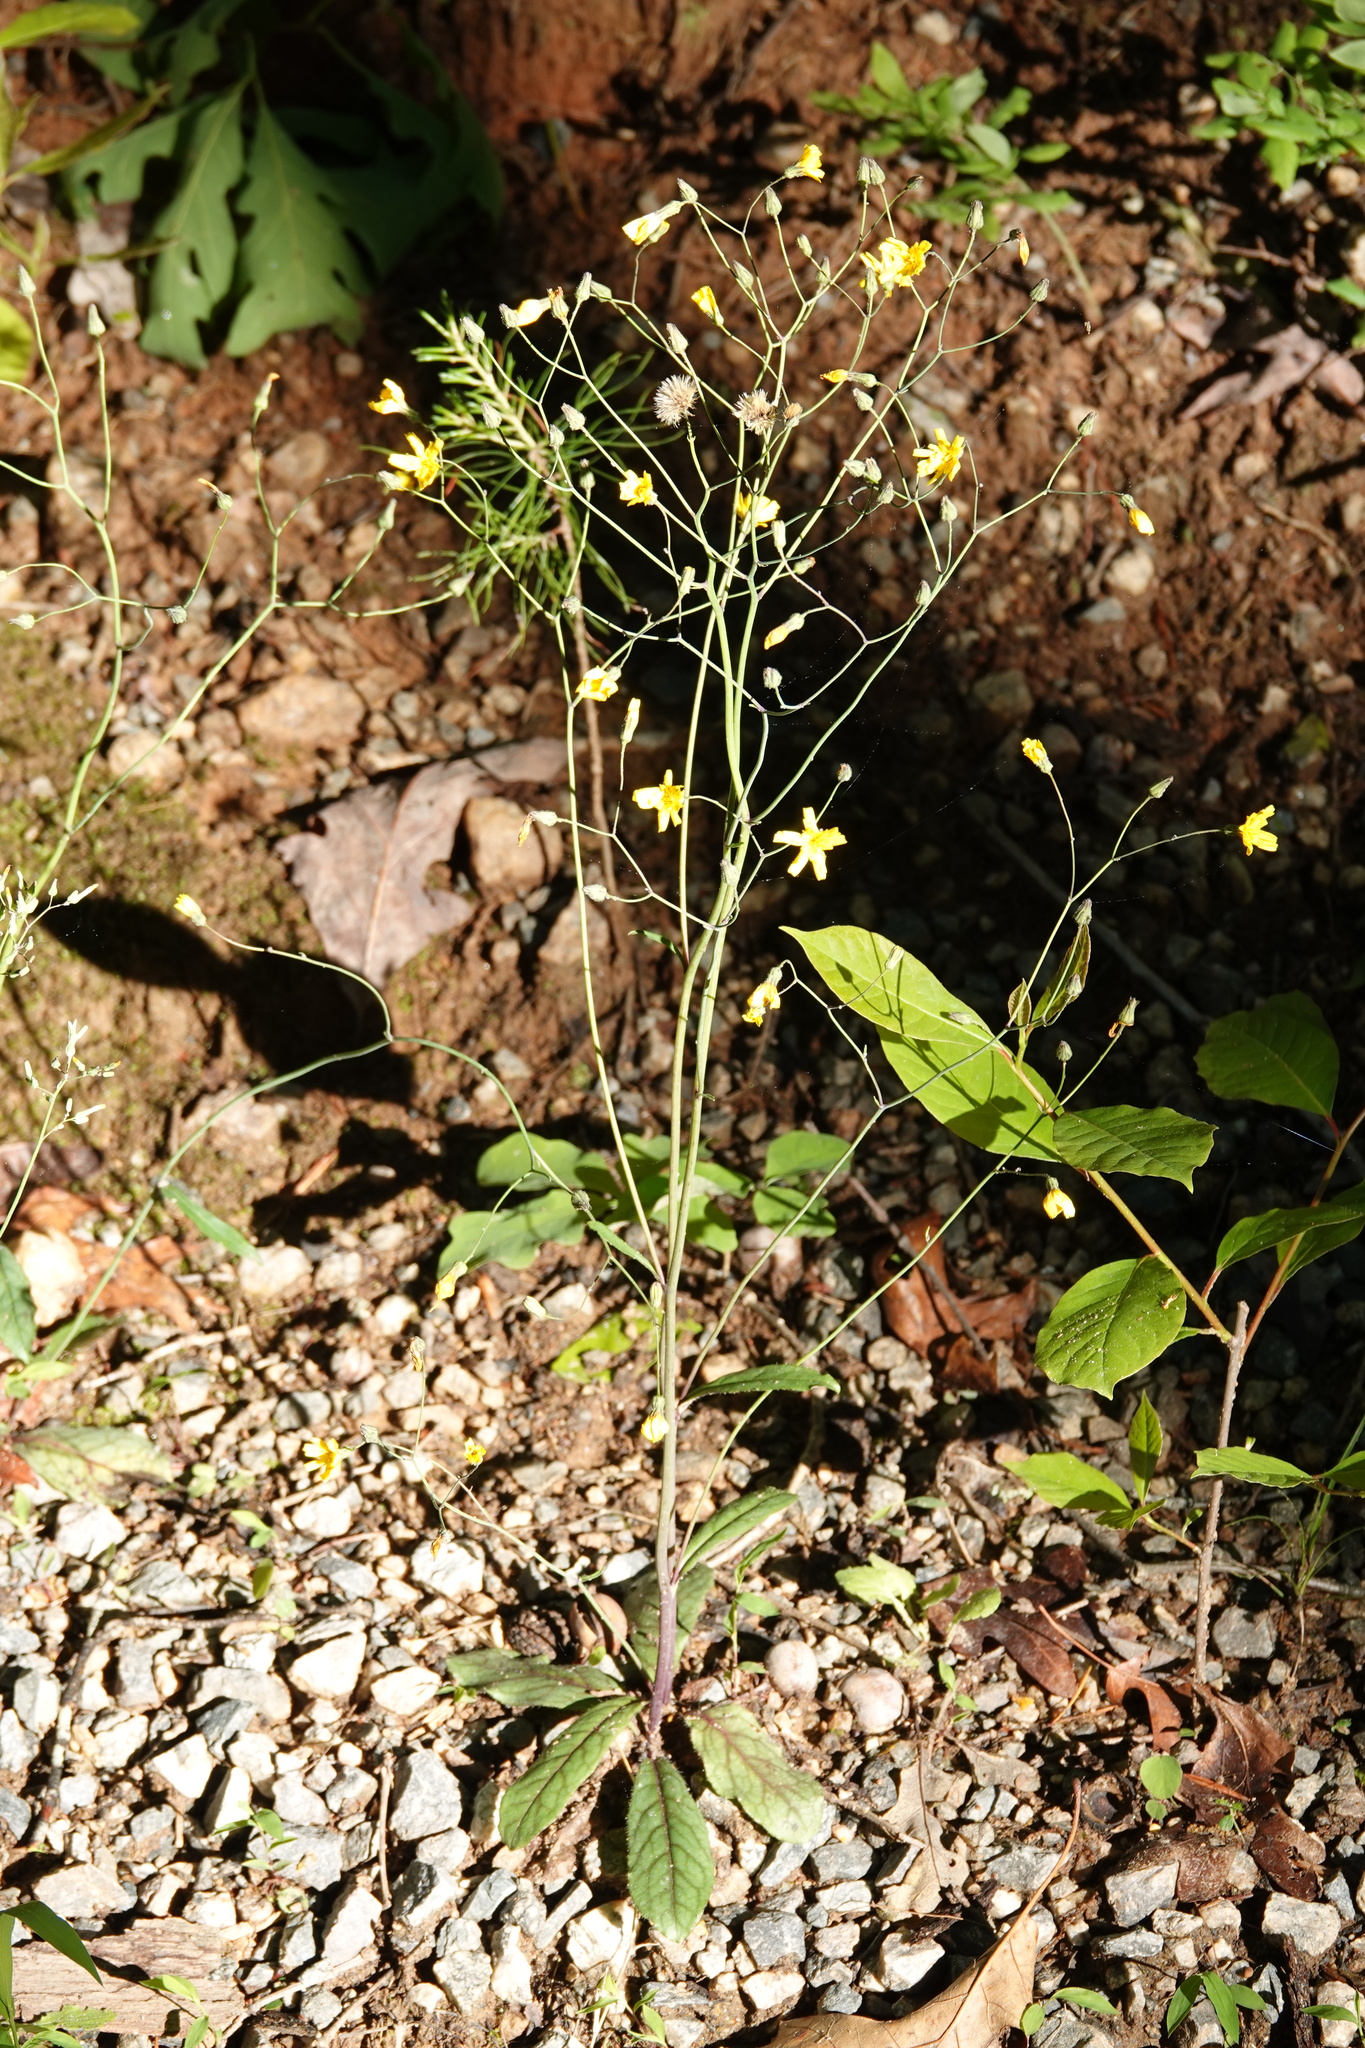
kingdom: Plantae
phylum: Tracheophyta
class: Magnoliopsida
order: Asterales
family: Asteraceae
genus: Hieracium
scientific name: Hieracium venosum
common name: Rattlesnake hawkweed
